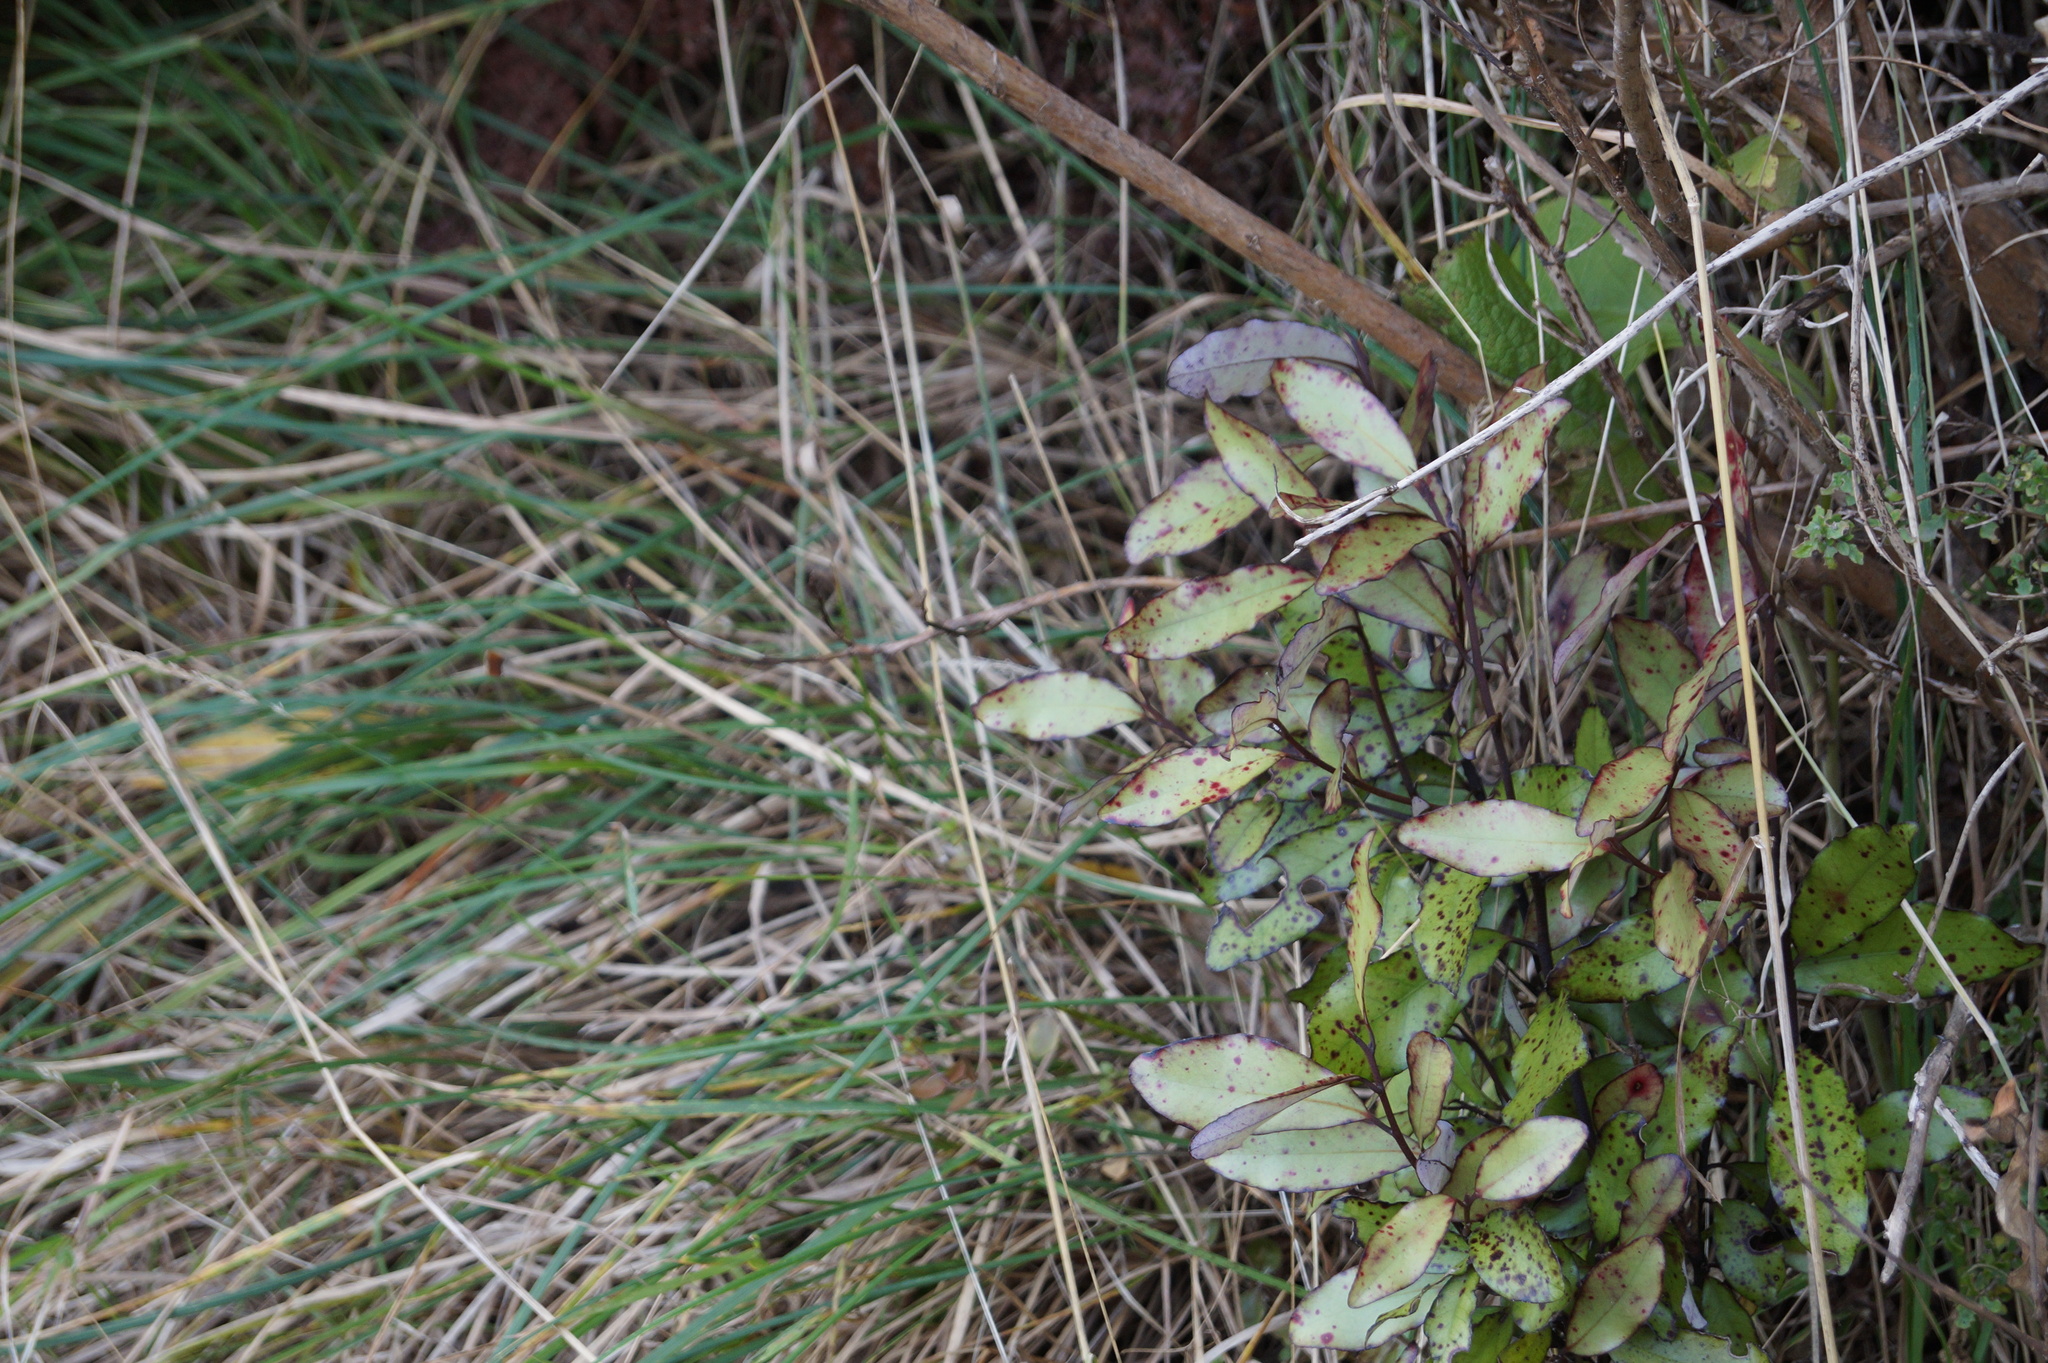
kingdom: Plantae
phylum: Tracheophyta
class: Magnoliopsida
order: Canellales
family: Winteraceae
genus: Pseudowintera
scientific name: Pseudowintera colorata
